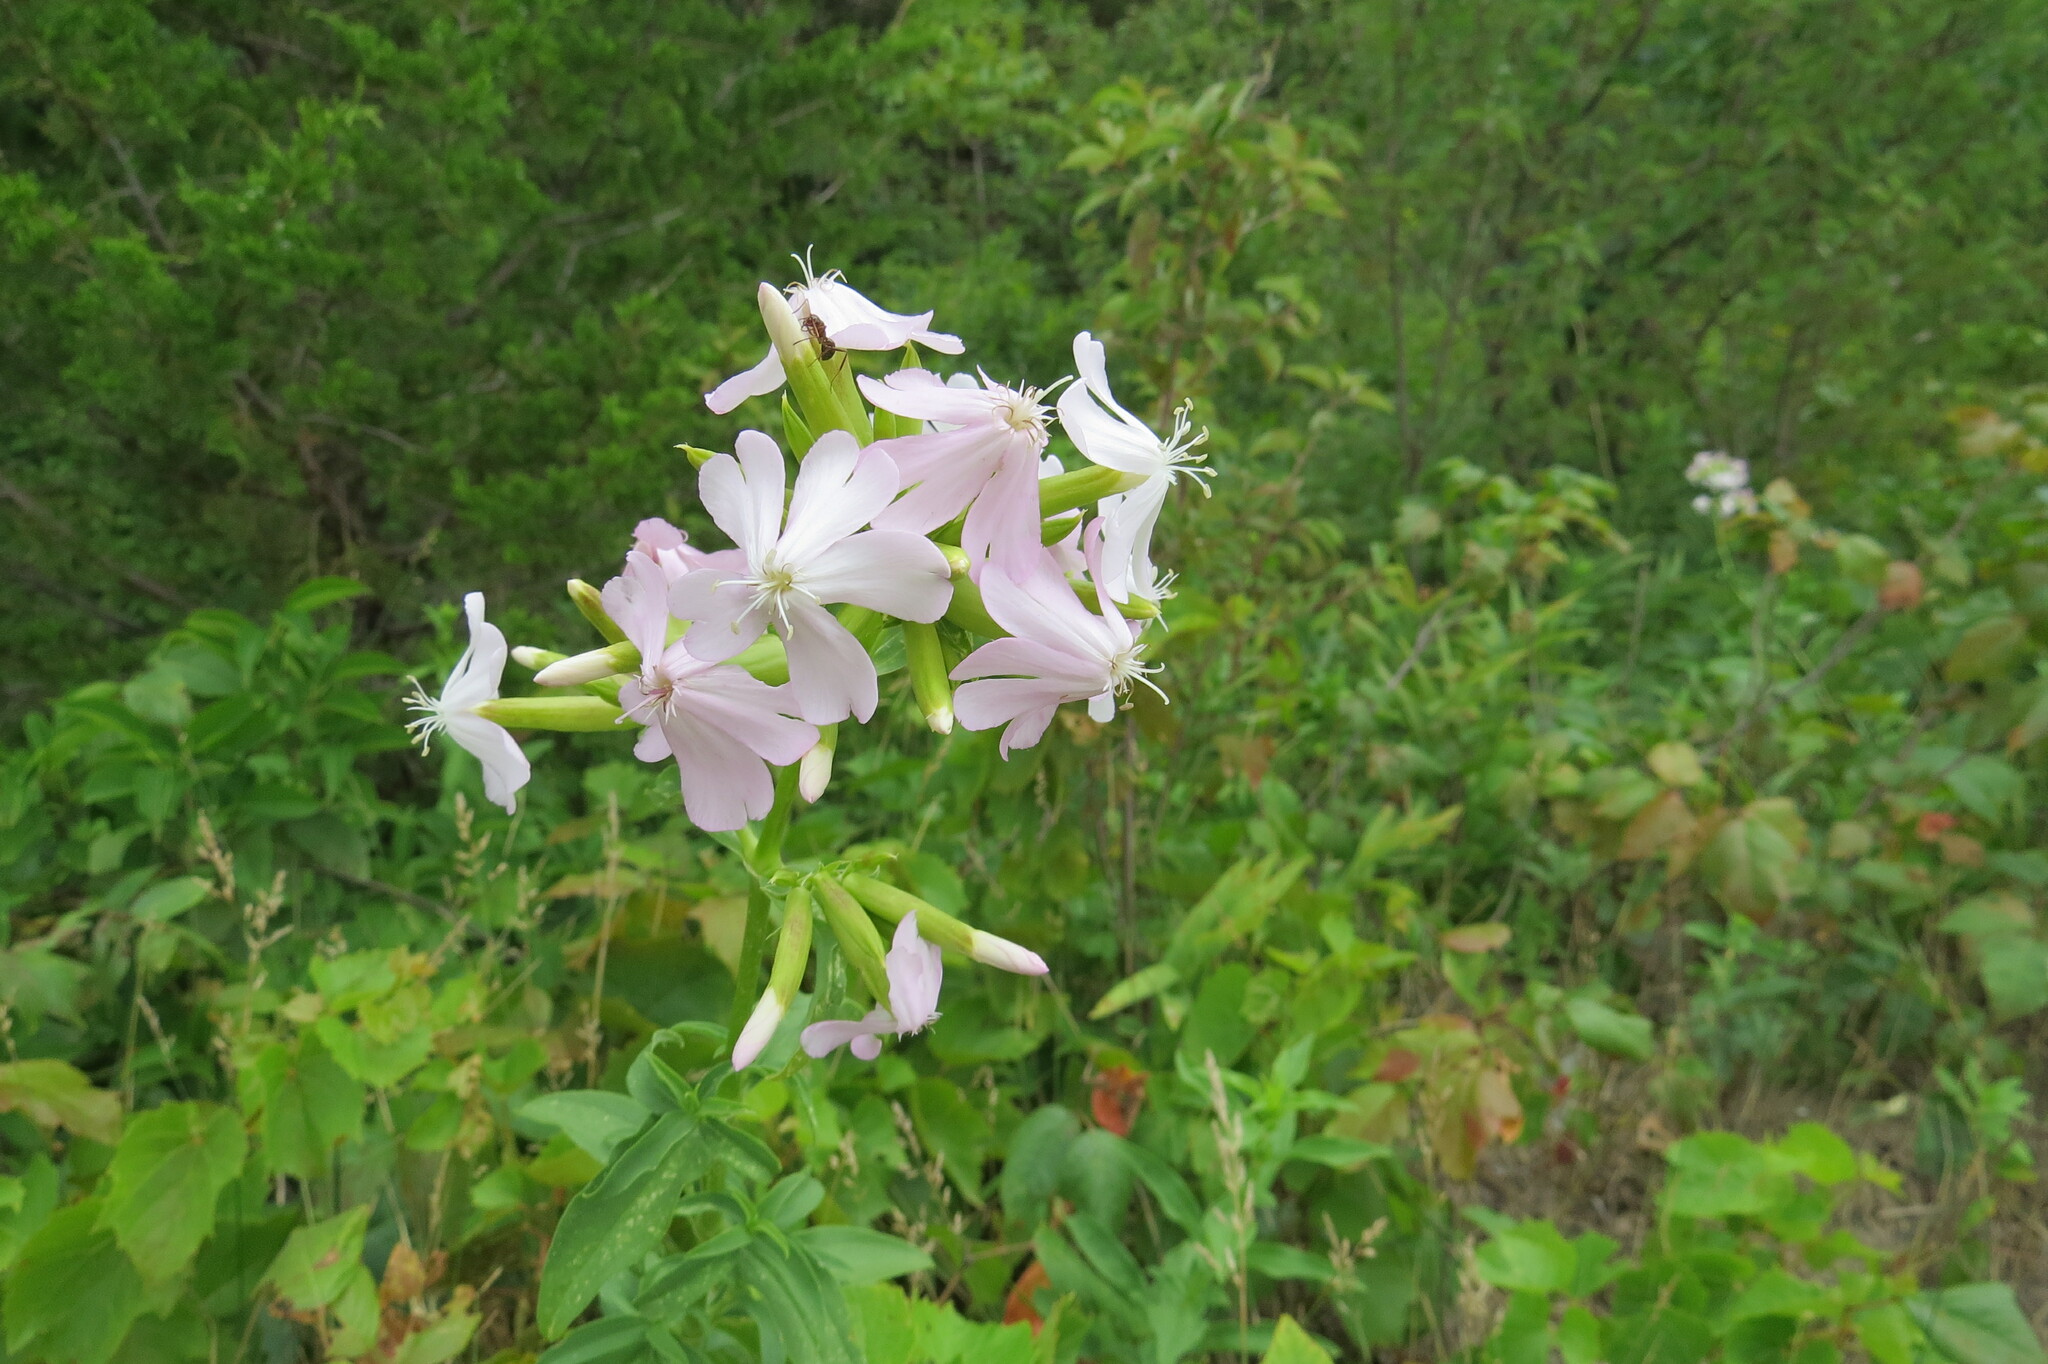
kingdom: Plantae
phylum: Tracheophyta
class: Magnoliopsida
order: Caryophyllales
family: Caryophyllaceae
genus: Saponaria
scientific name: Saponaria officinalis
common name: Soapwort
